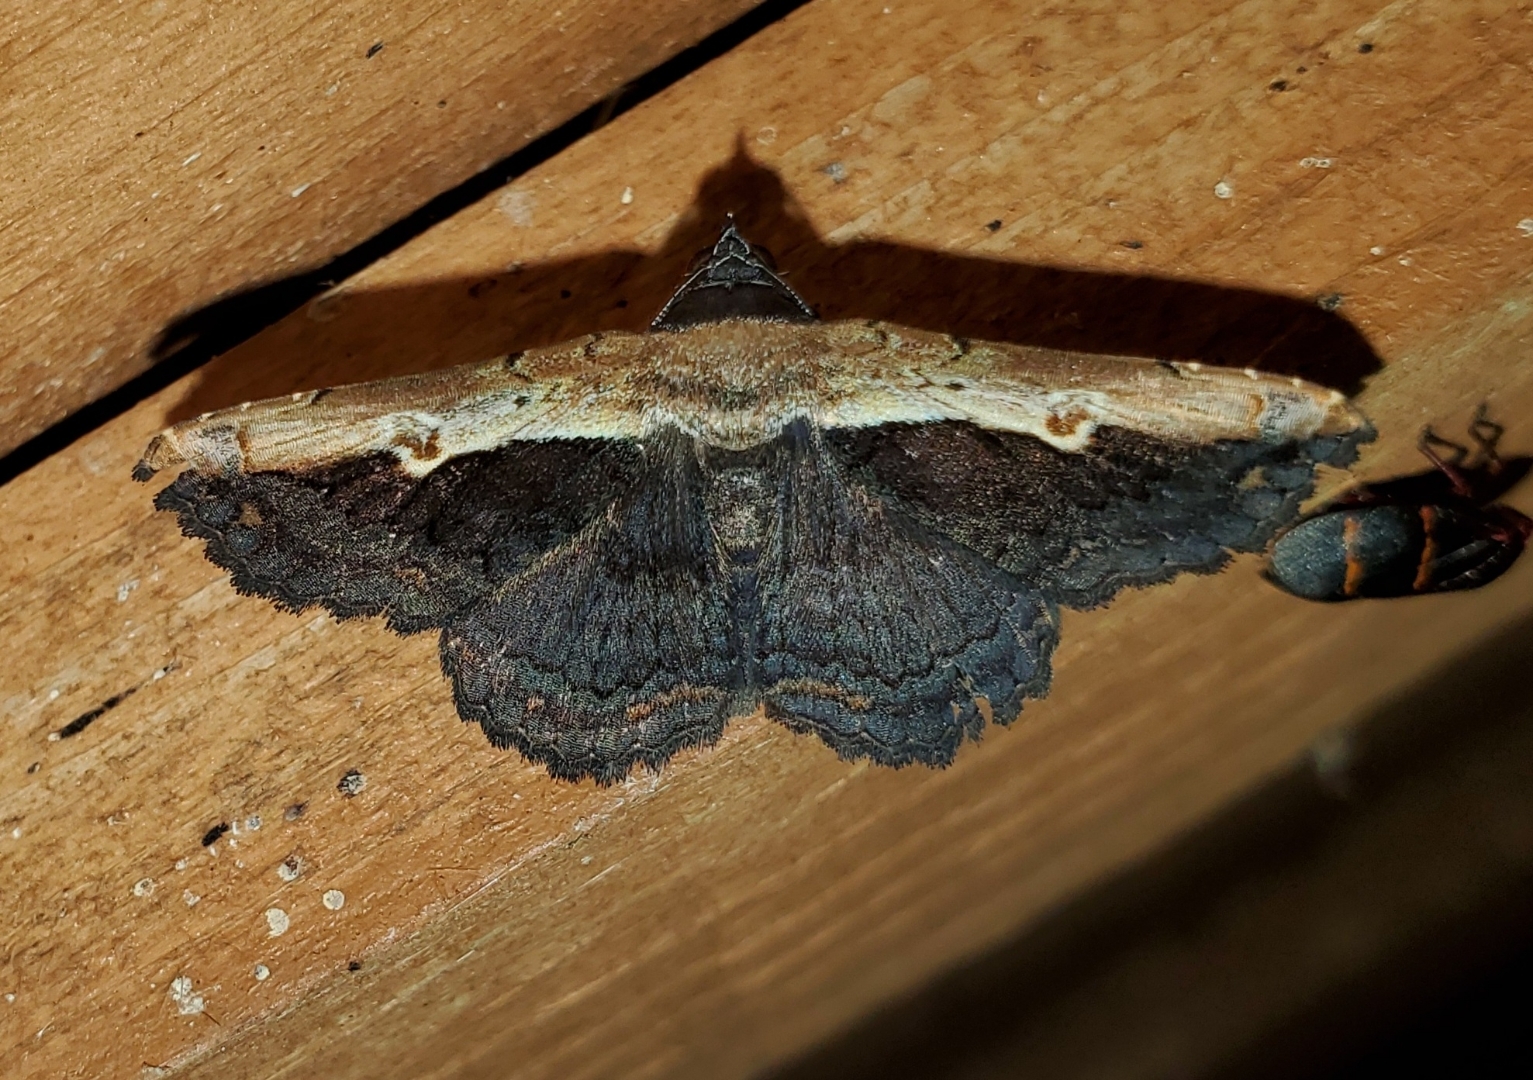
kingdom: Animalia
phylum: Arthropoda
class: Insecta
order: Lepidoptera
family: Erebidae
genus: Selenisa
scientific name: Selenisa sueroides
